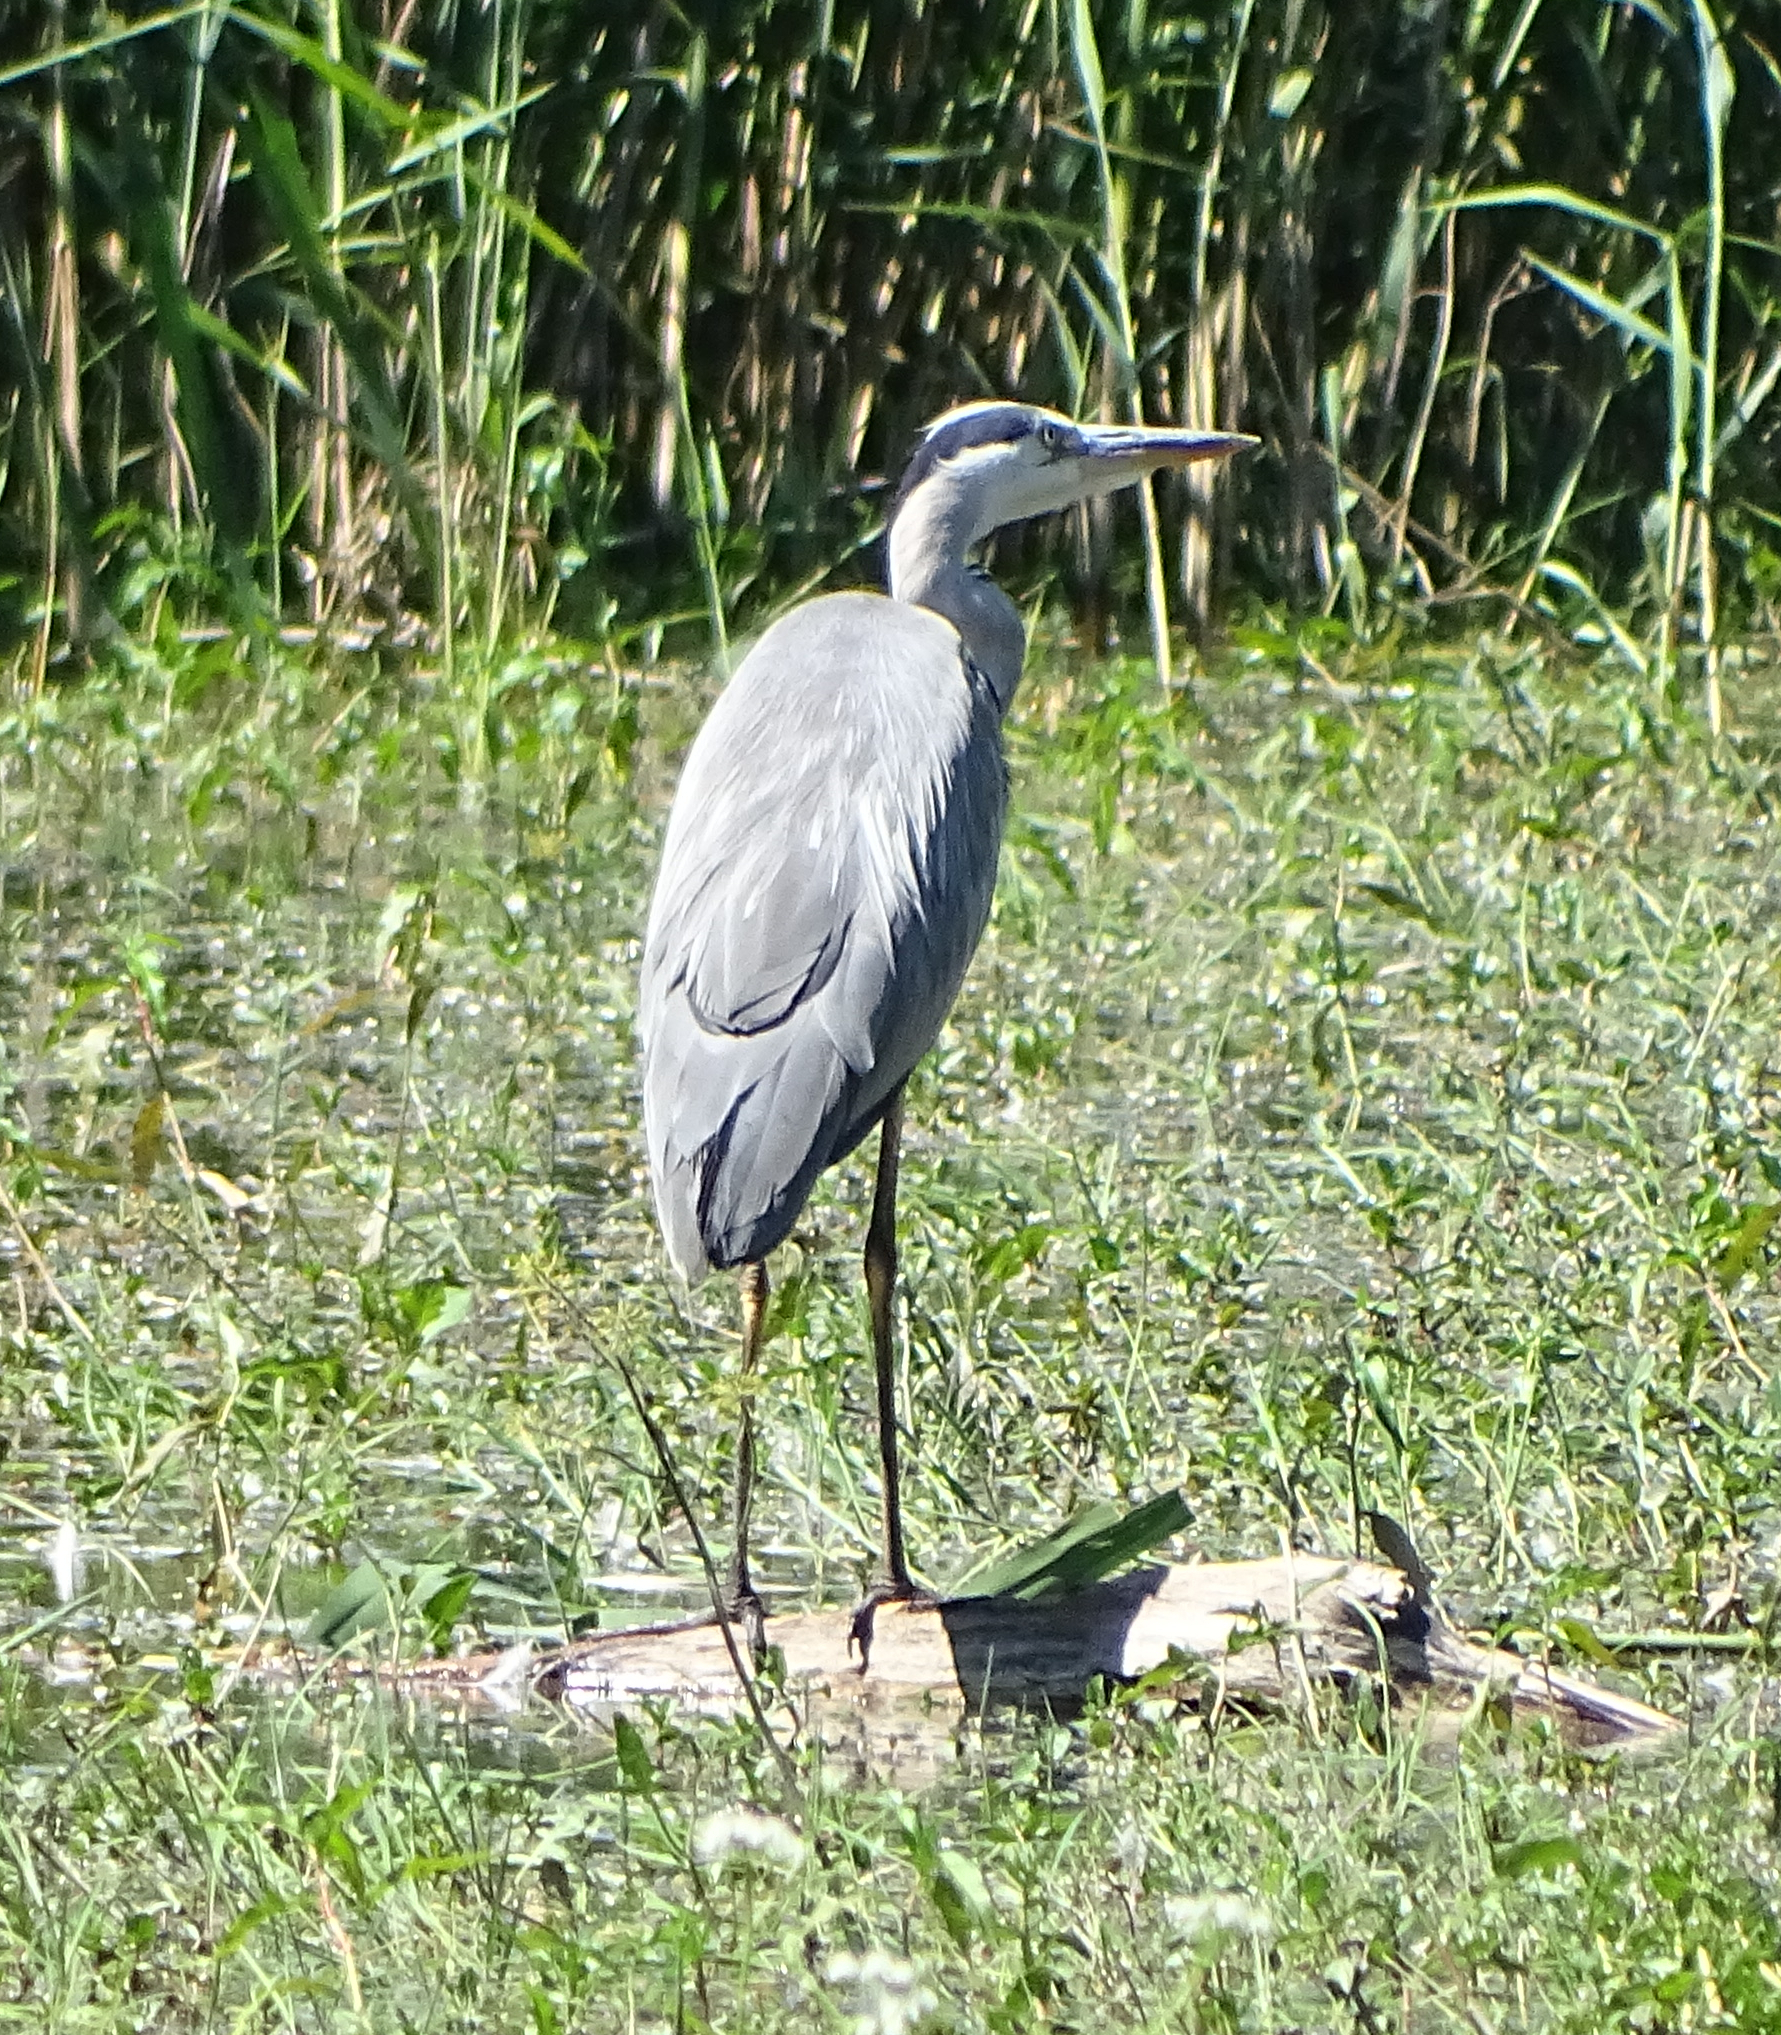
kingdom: Animalia
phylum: Chordata
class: Aves
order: Pelecaniformes
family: Ardeidae
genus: Ardea
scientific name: Ardea cinerea
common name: Grey heron
